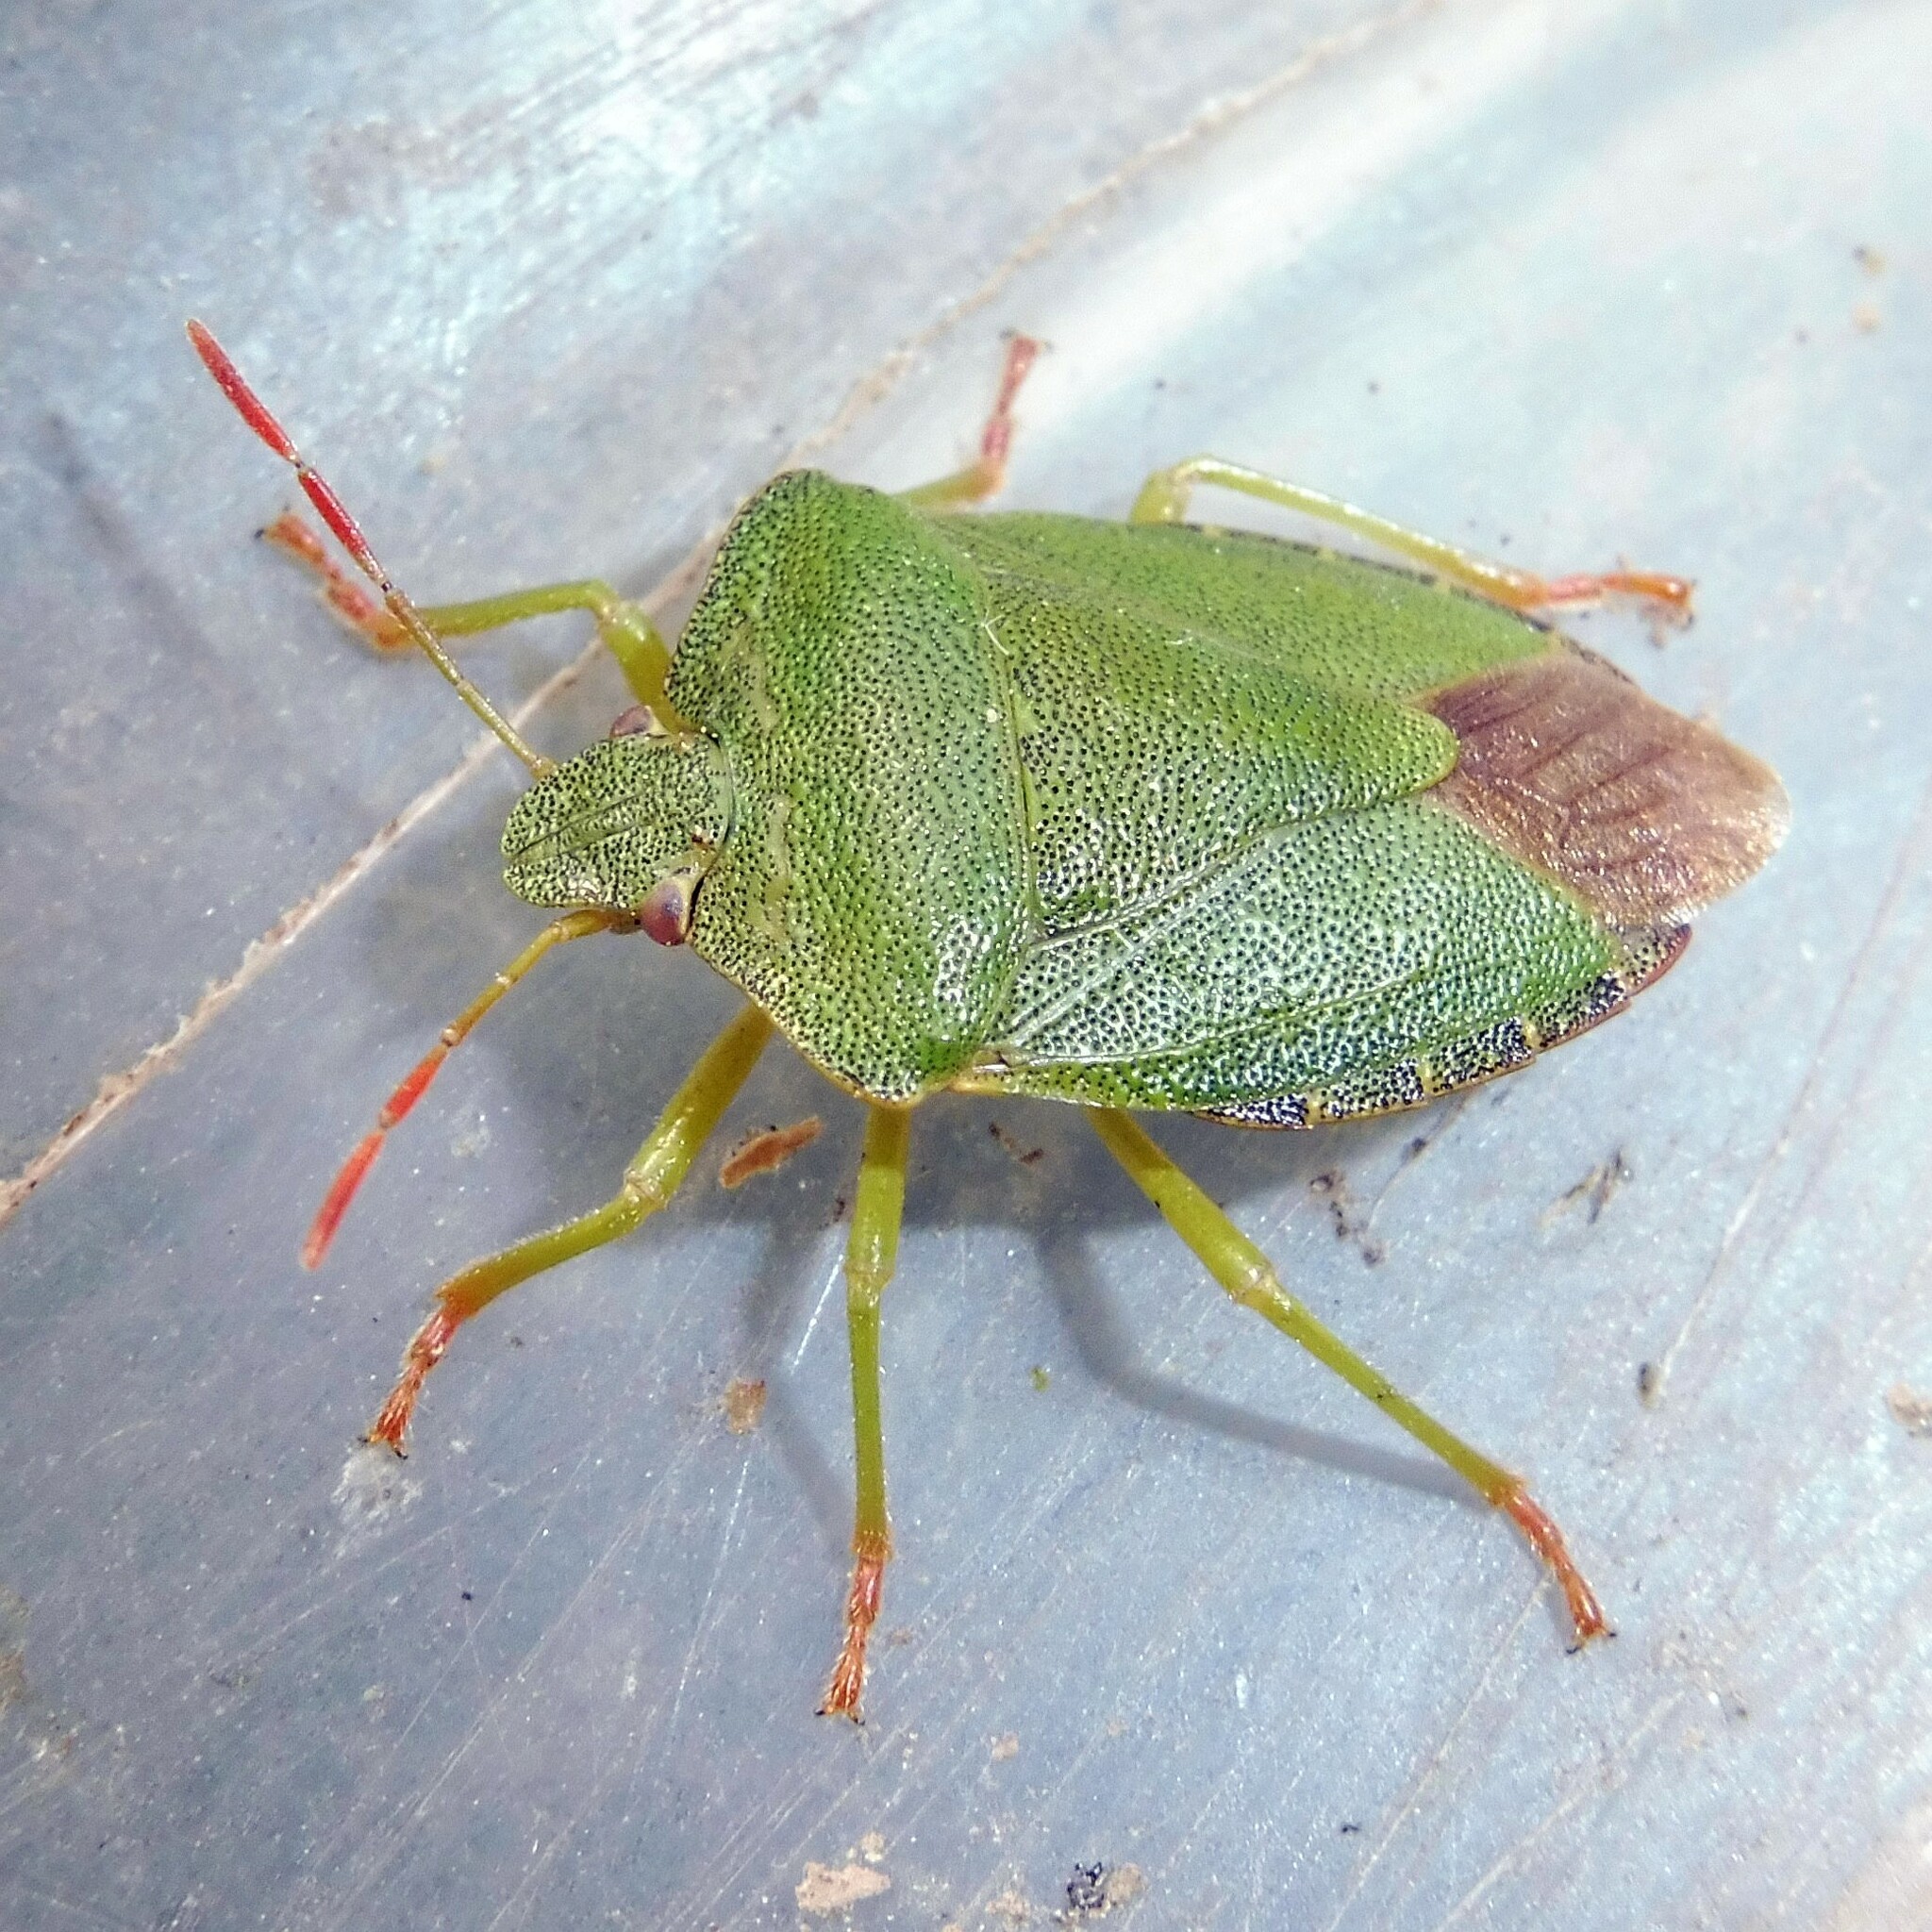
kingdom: Animalia
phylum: Arthropoda
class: Insecta
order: Hemiptera
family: Pentatomidae
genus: Palomena
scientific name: Palomena prasina
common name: Green shieldbug
